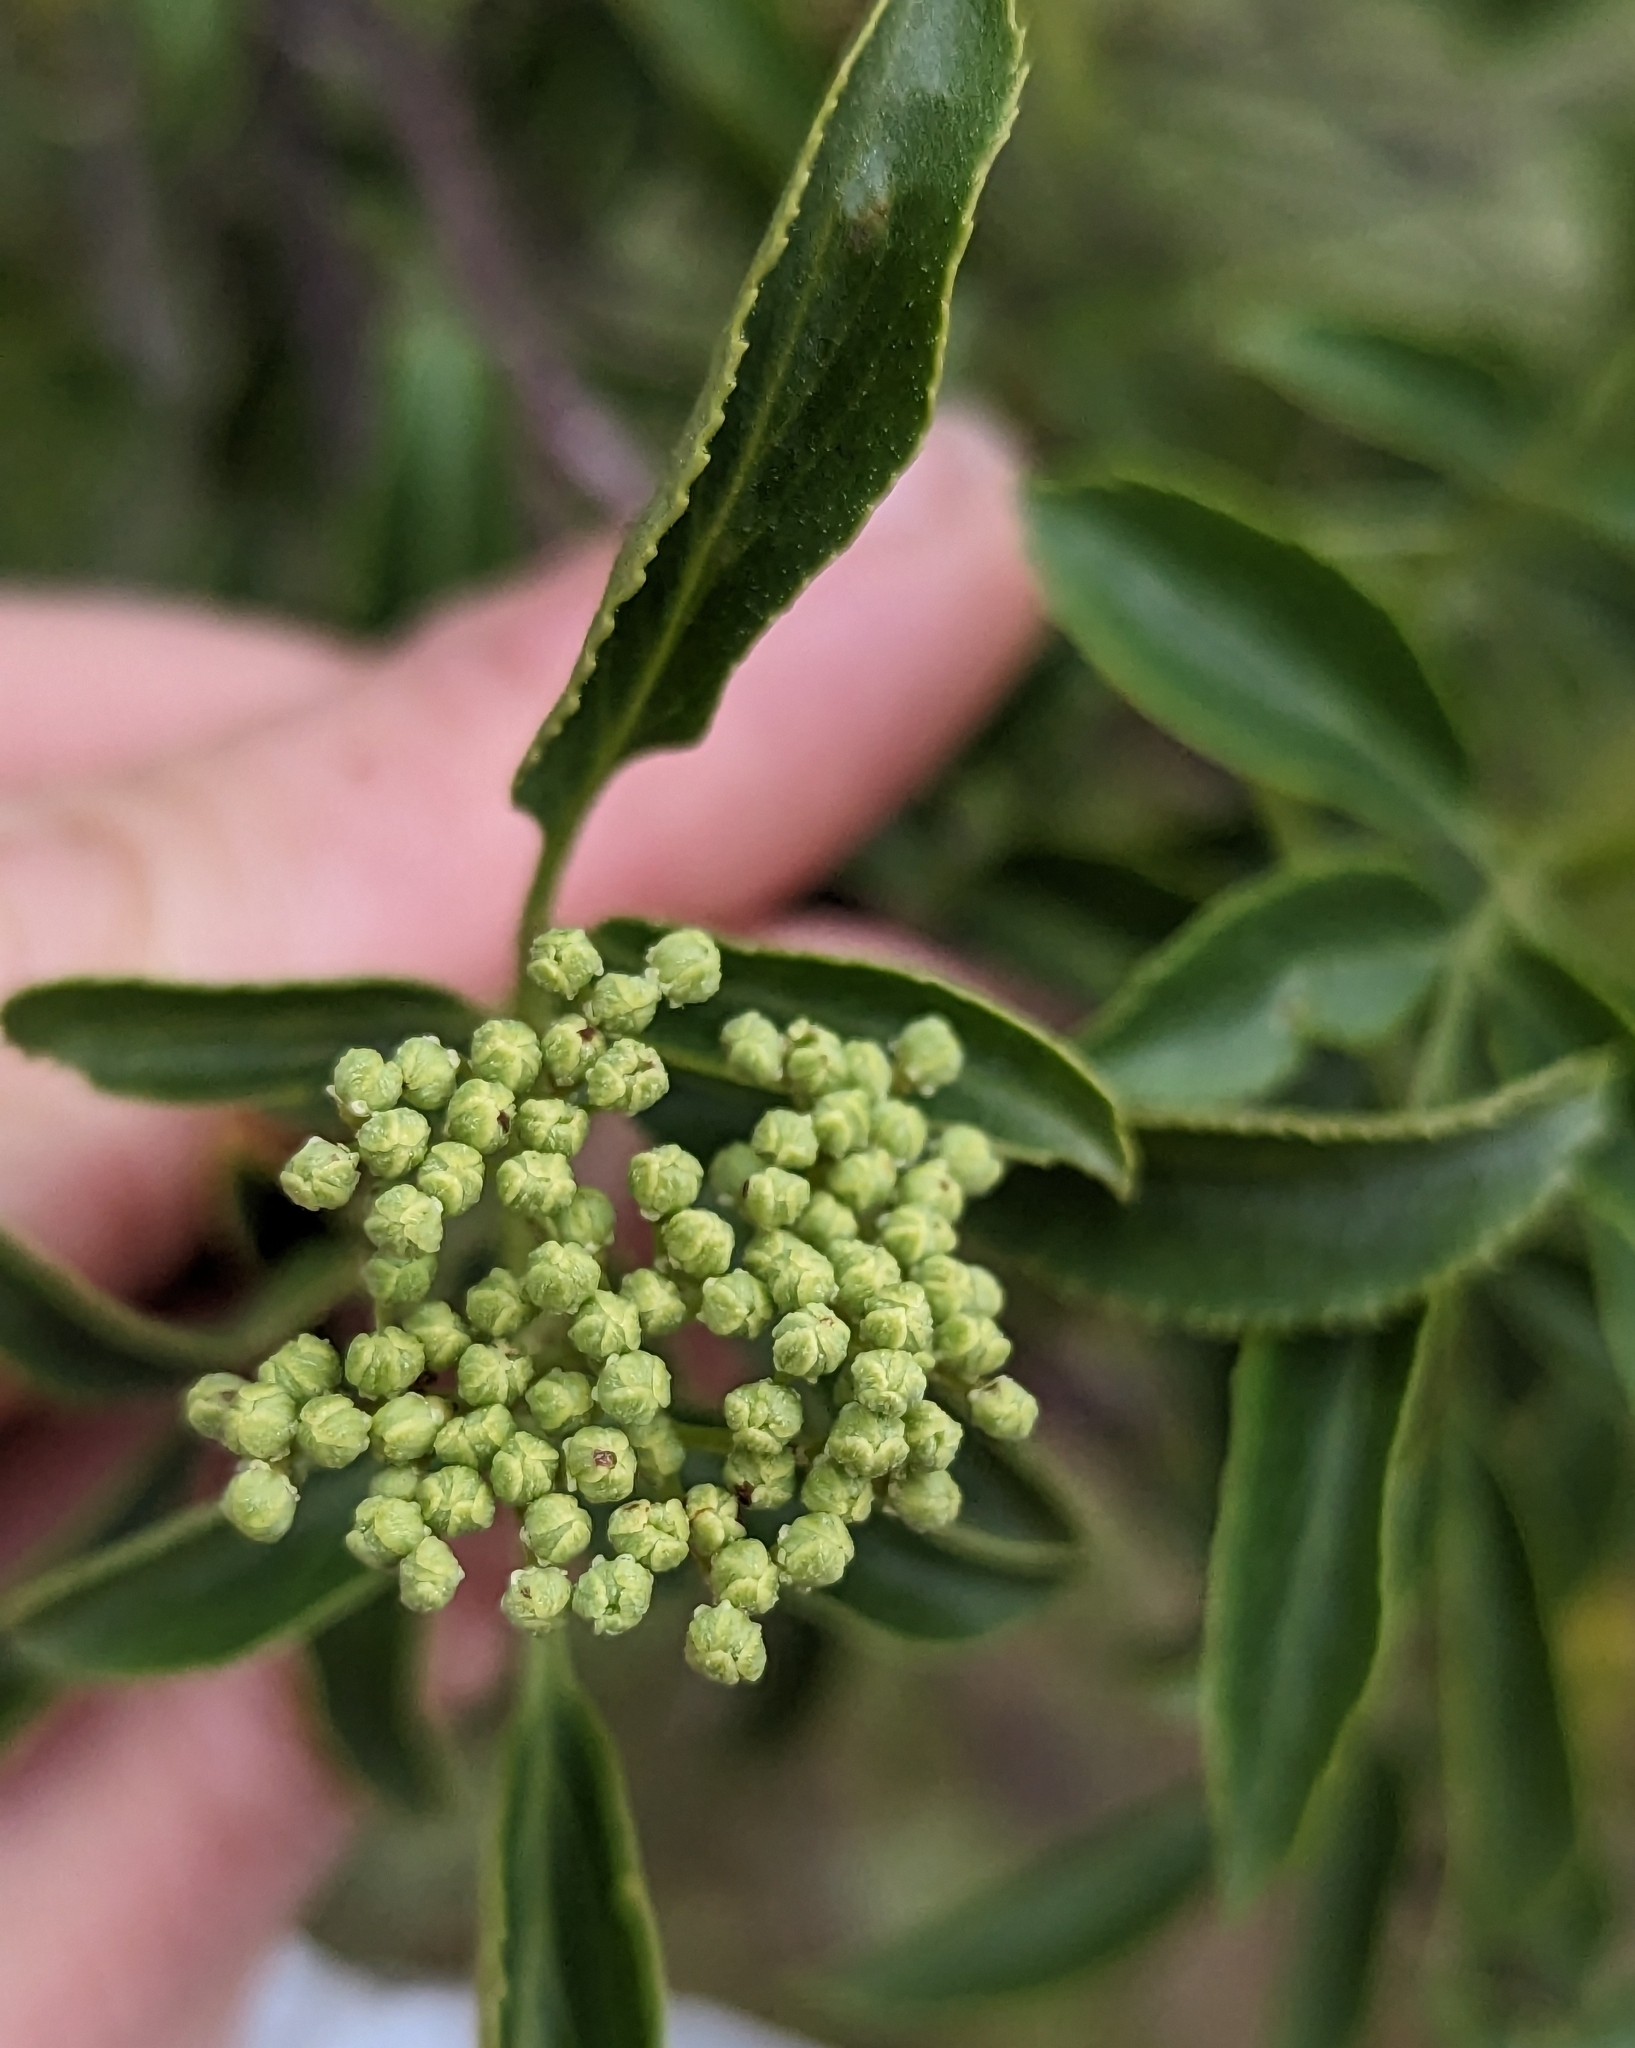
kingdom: Plantae
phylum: Tracheophyta
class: Magnoliopsida
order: Dipsacales
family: Viburnaceae
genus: Sambucus
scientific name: Sambucus cerulea
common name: Blue elder
